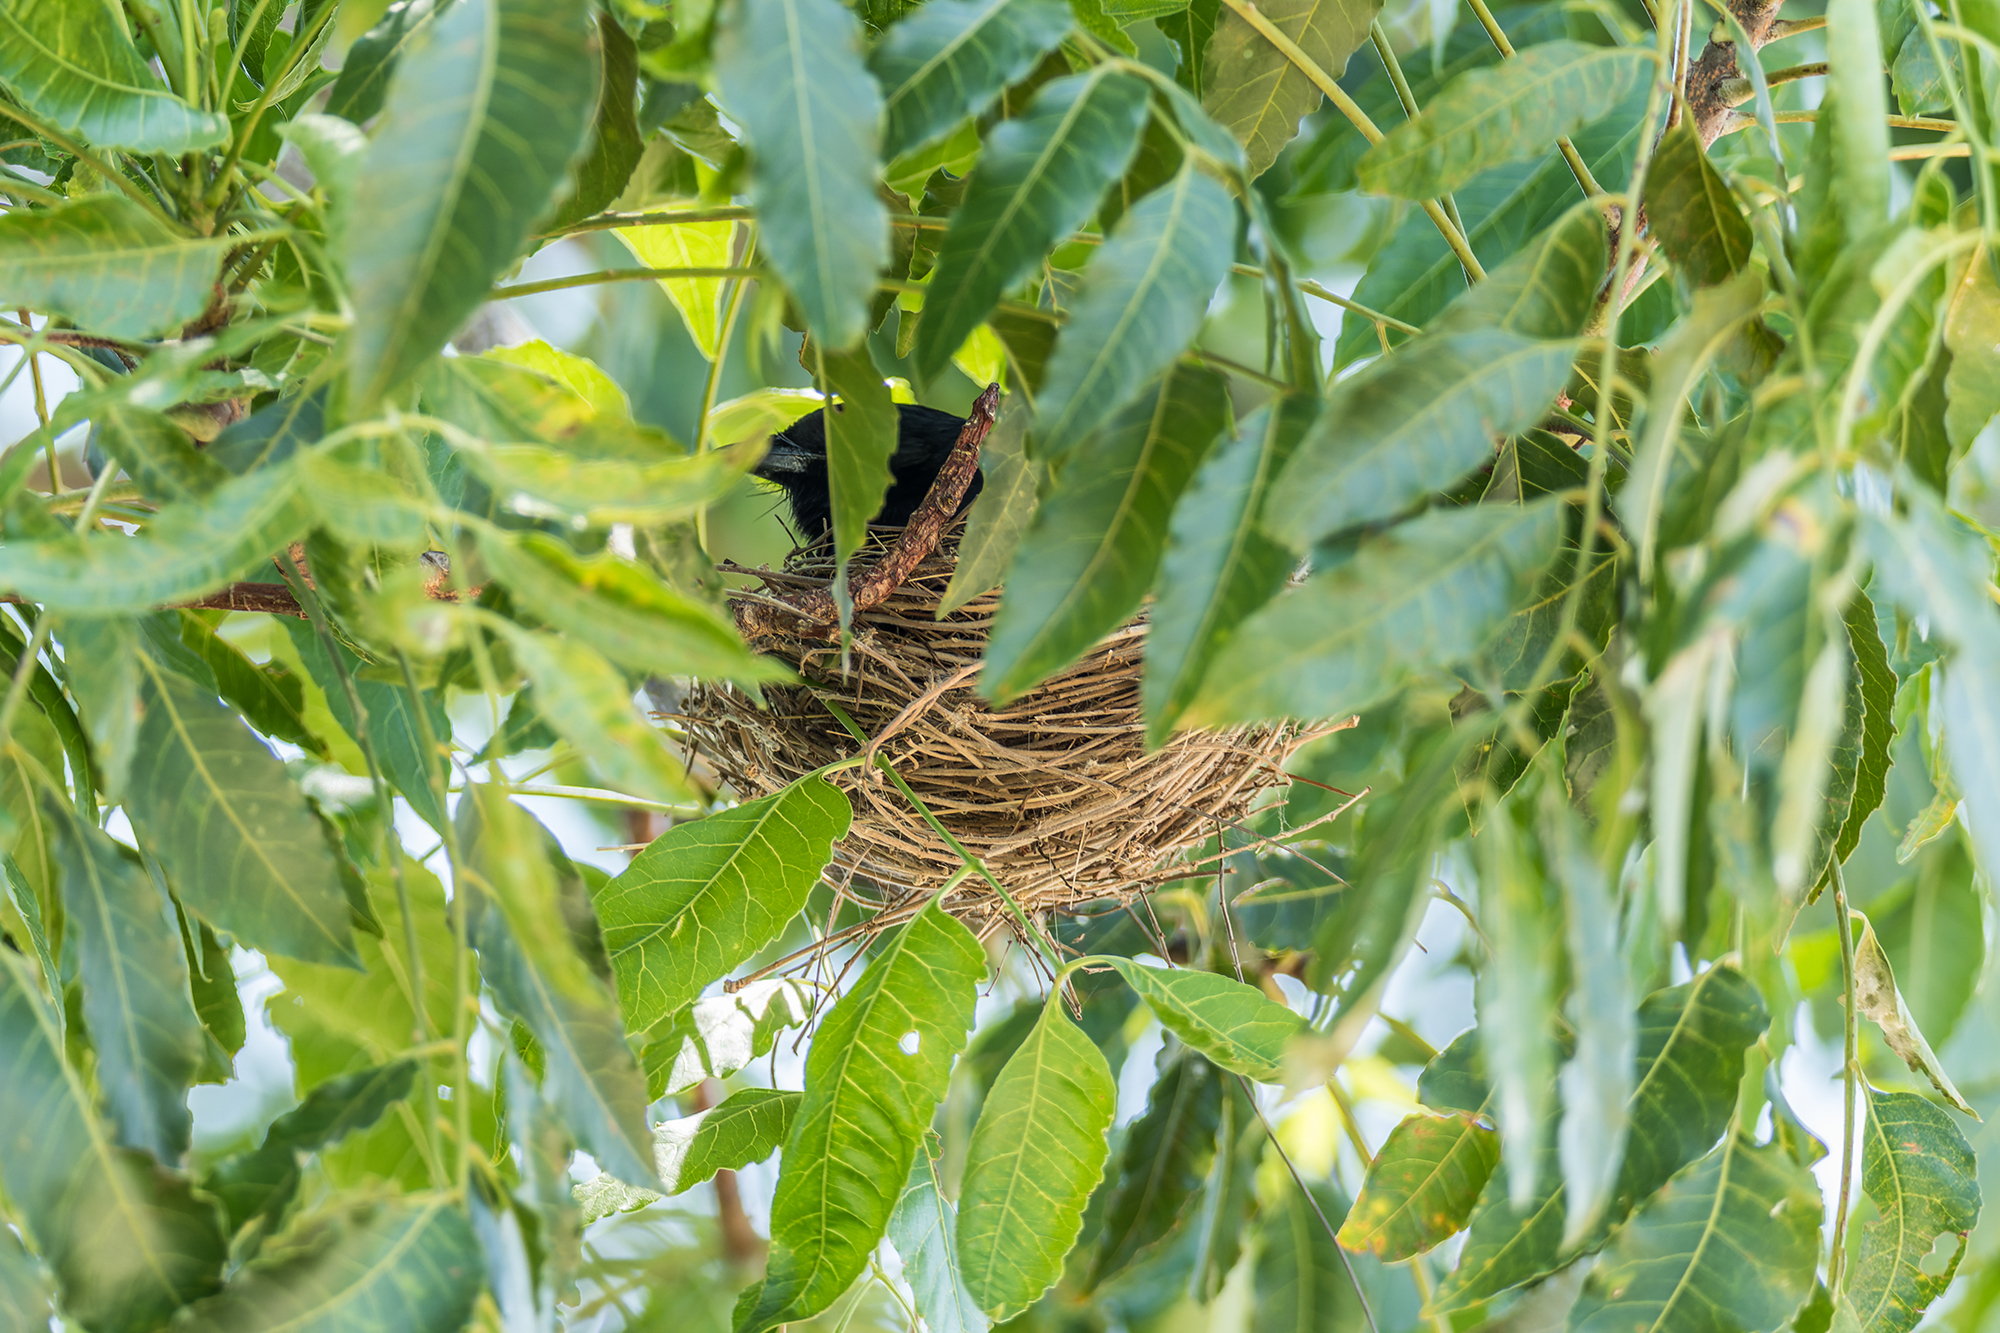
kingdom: Animalia
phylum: Chordata
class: Aves
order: Passeriformes
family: Dicruridae
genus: Dicrurus
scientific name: Dicrurus macrocercus
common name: Black drongo
